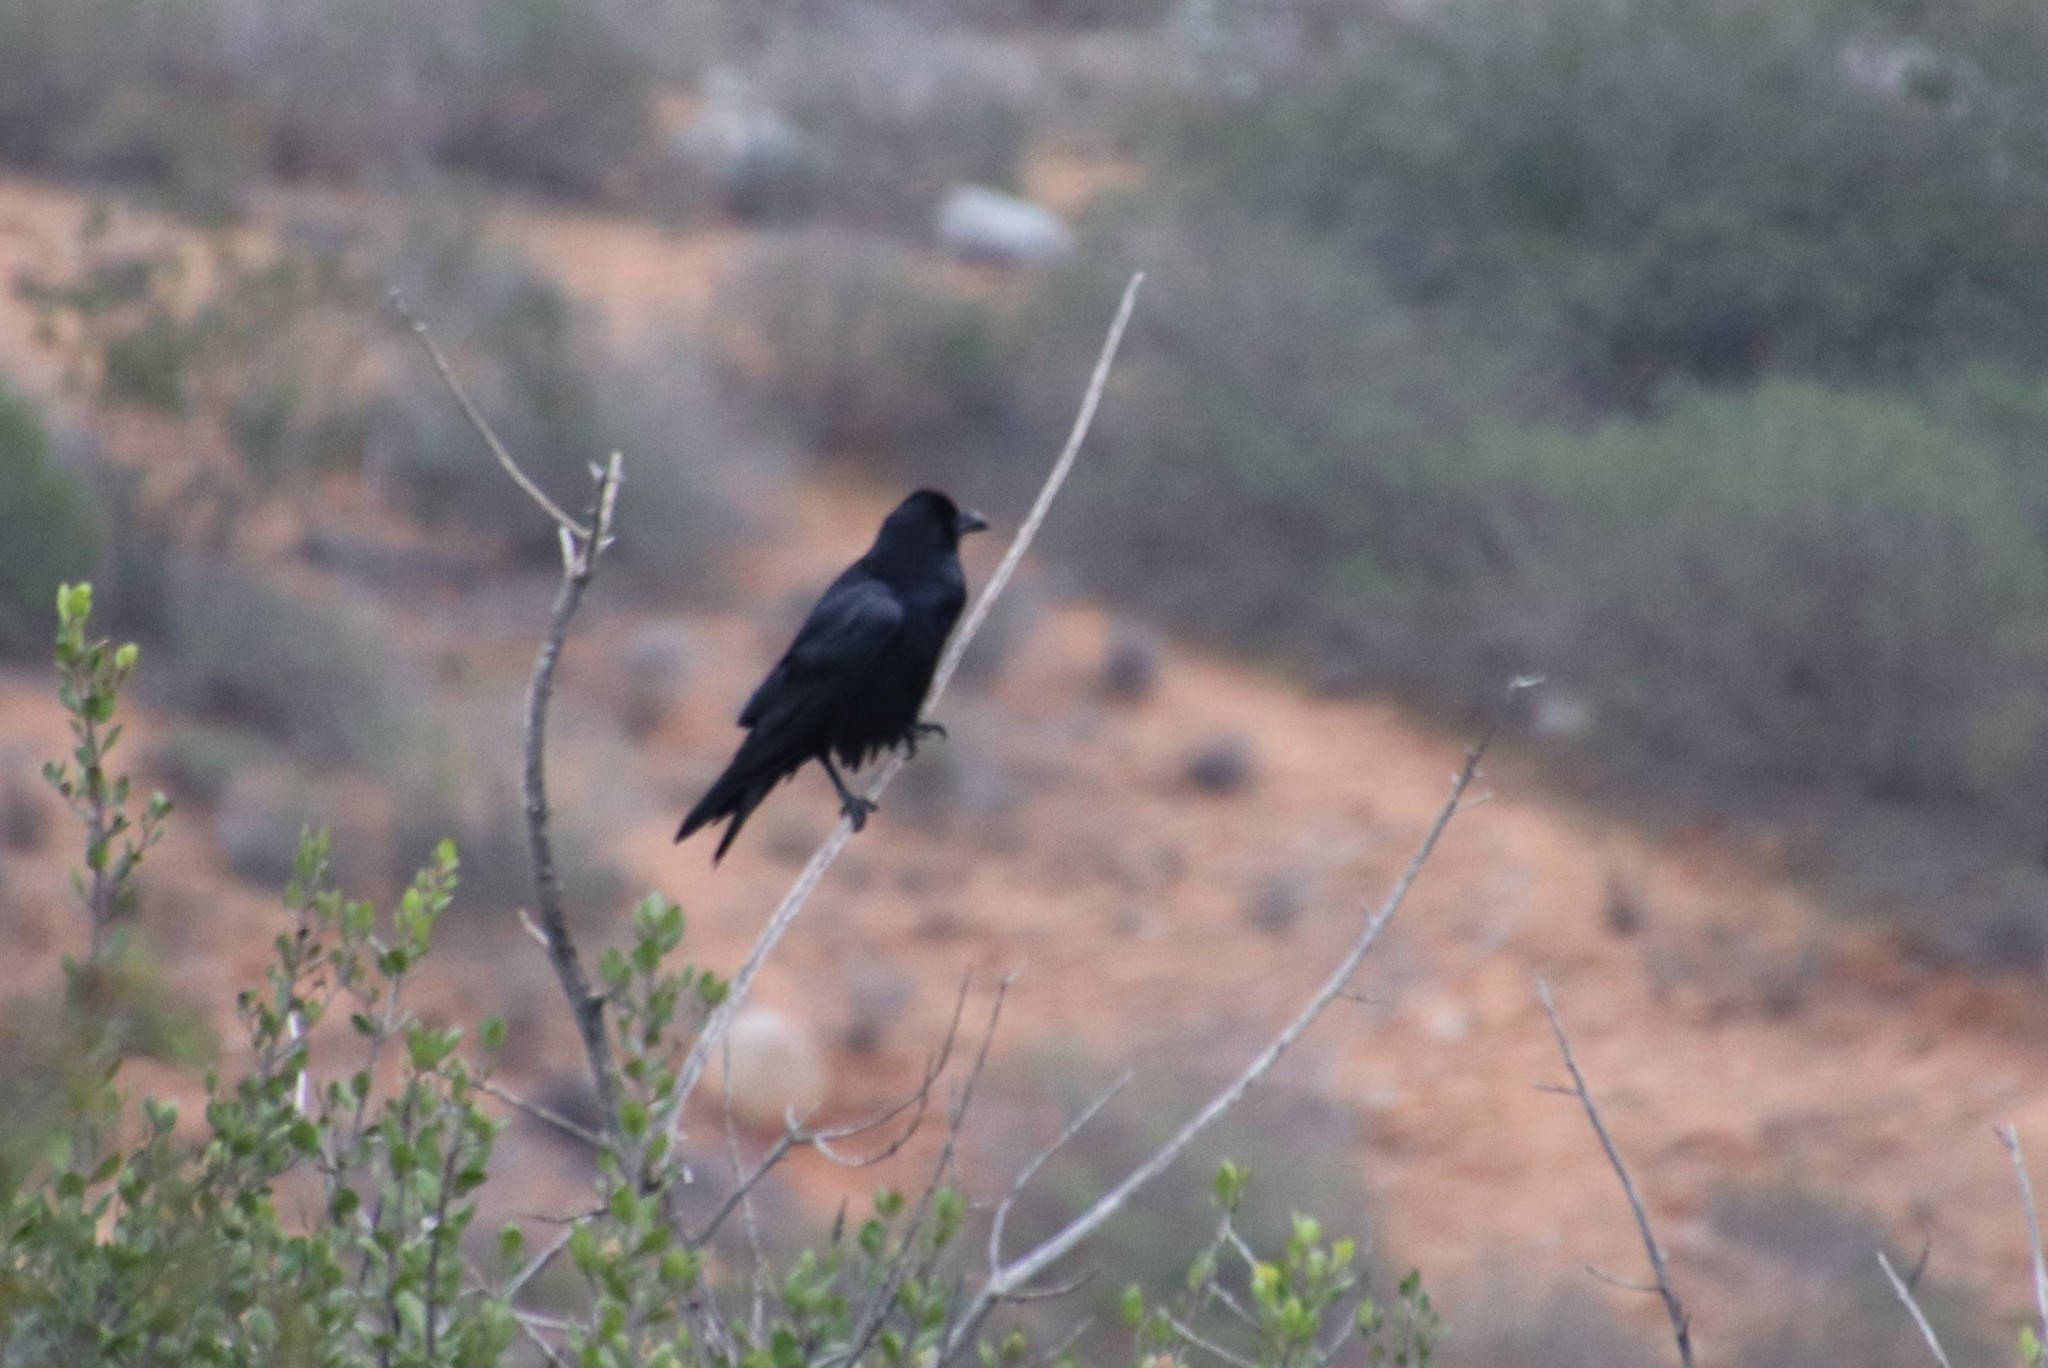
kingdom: Animalia
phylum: Chordata
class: Aves
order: Passeriformes
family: Corvidae
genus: Corvus
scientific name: Corvus corax
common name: Common raven
